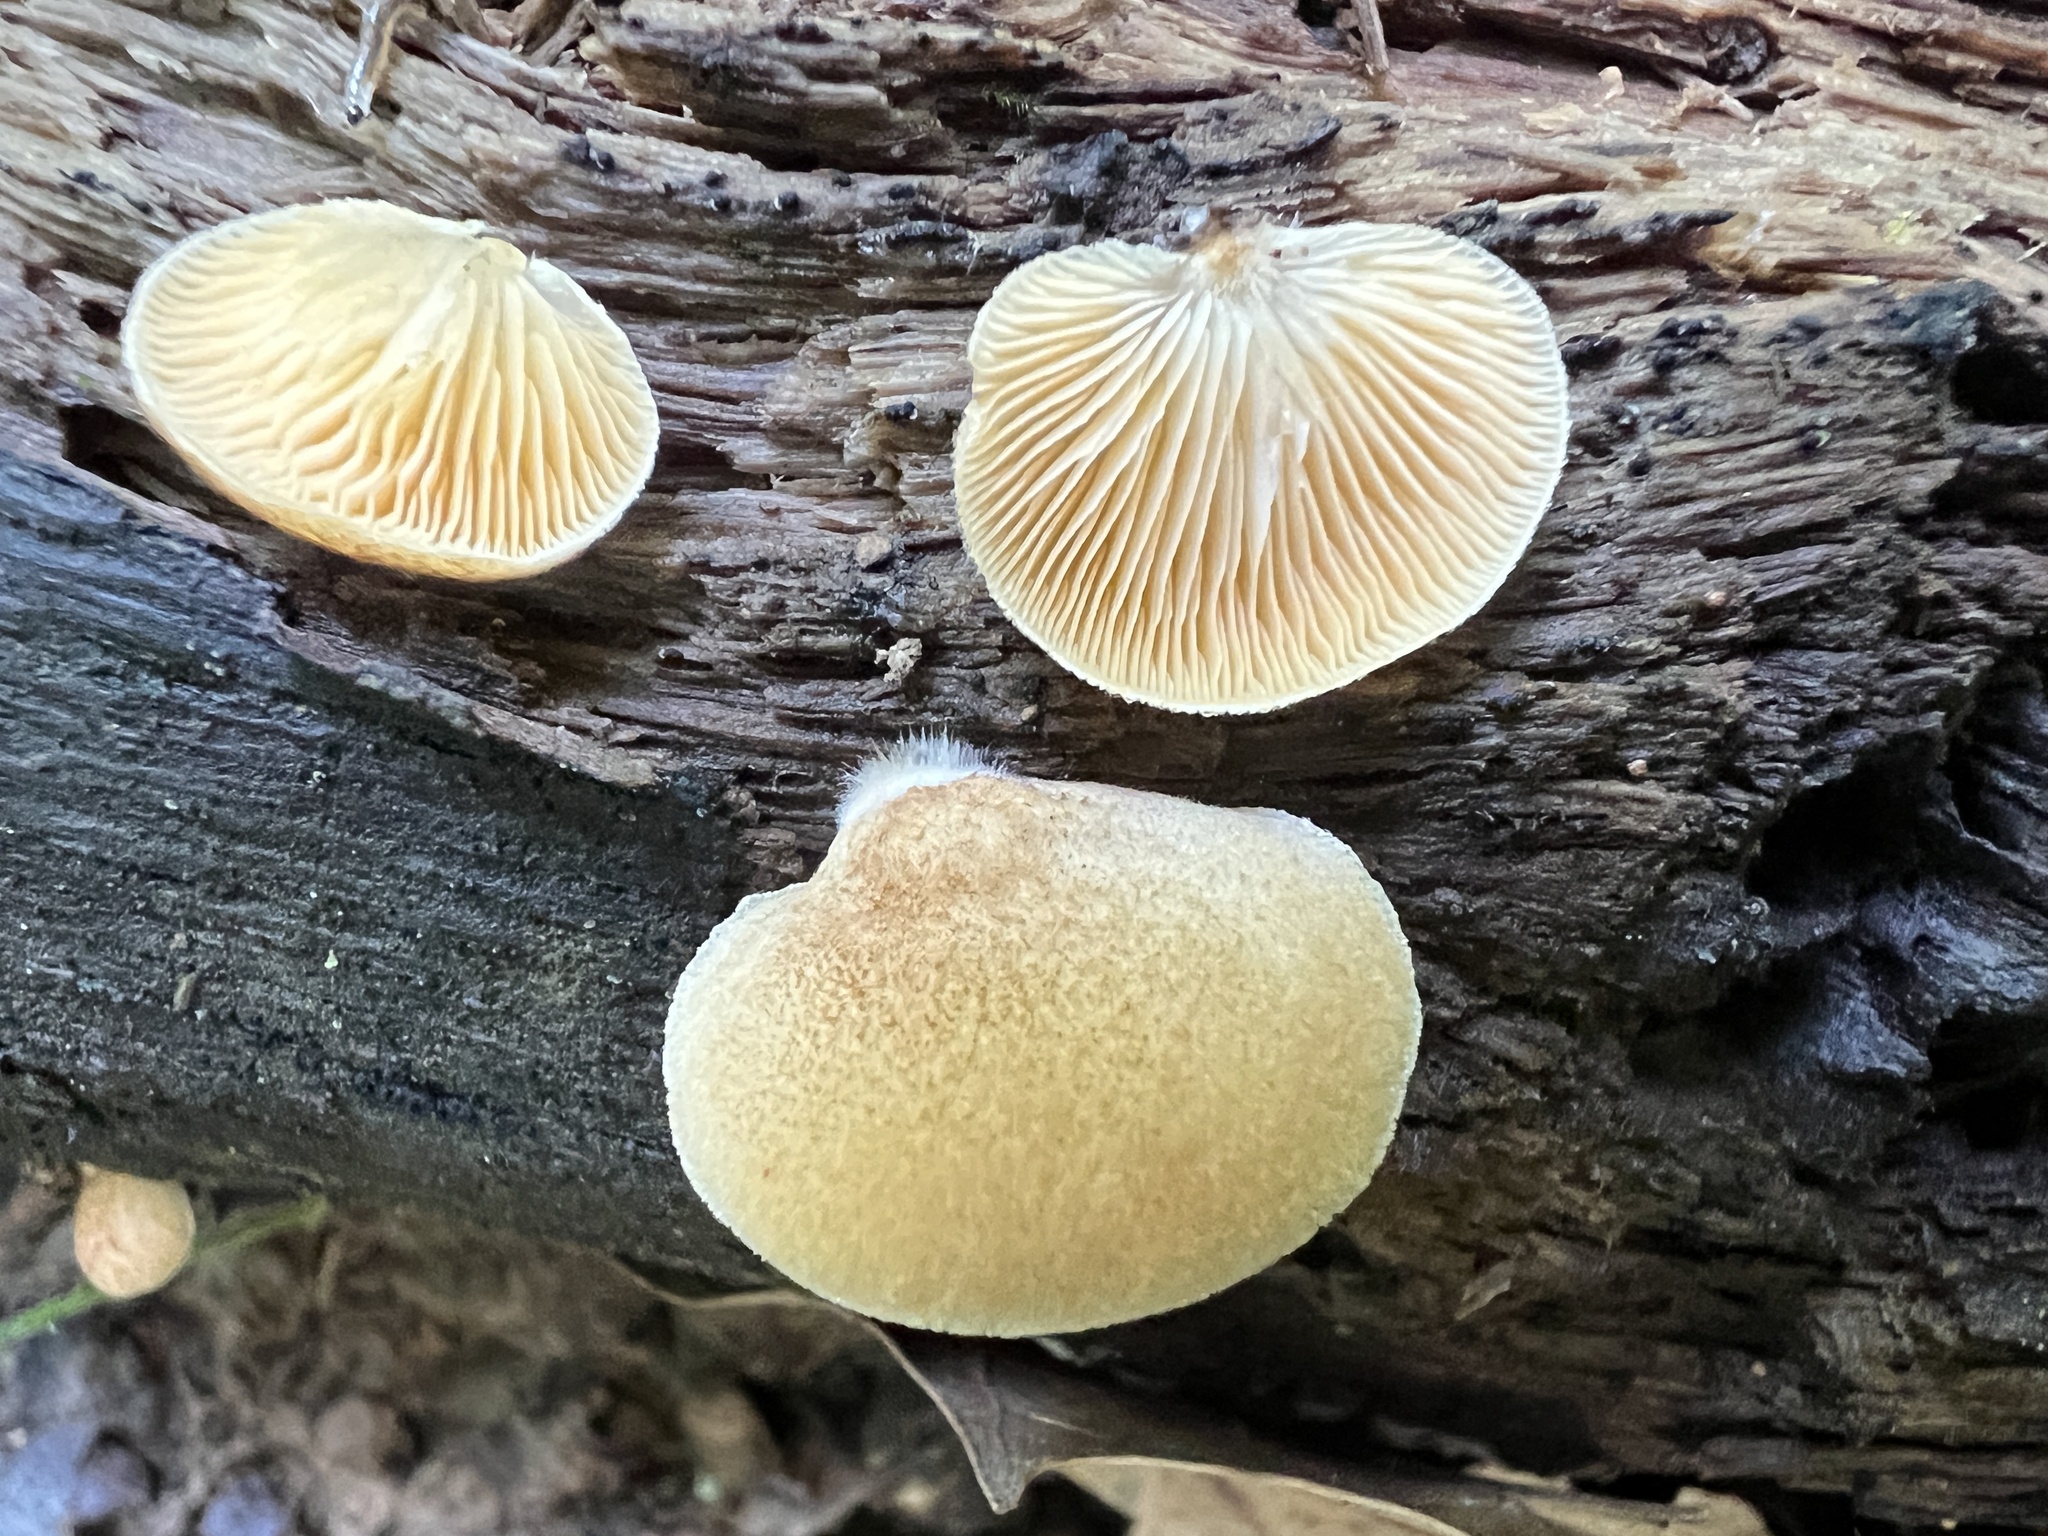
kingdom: Fungi
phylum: Basidiomycota
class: Agaricomycetes
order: Agaricales
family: Crepidotaceae
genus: Crepidotus
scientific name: Crepidotus crocophyllus
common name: Saffron oysterling
